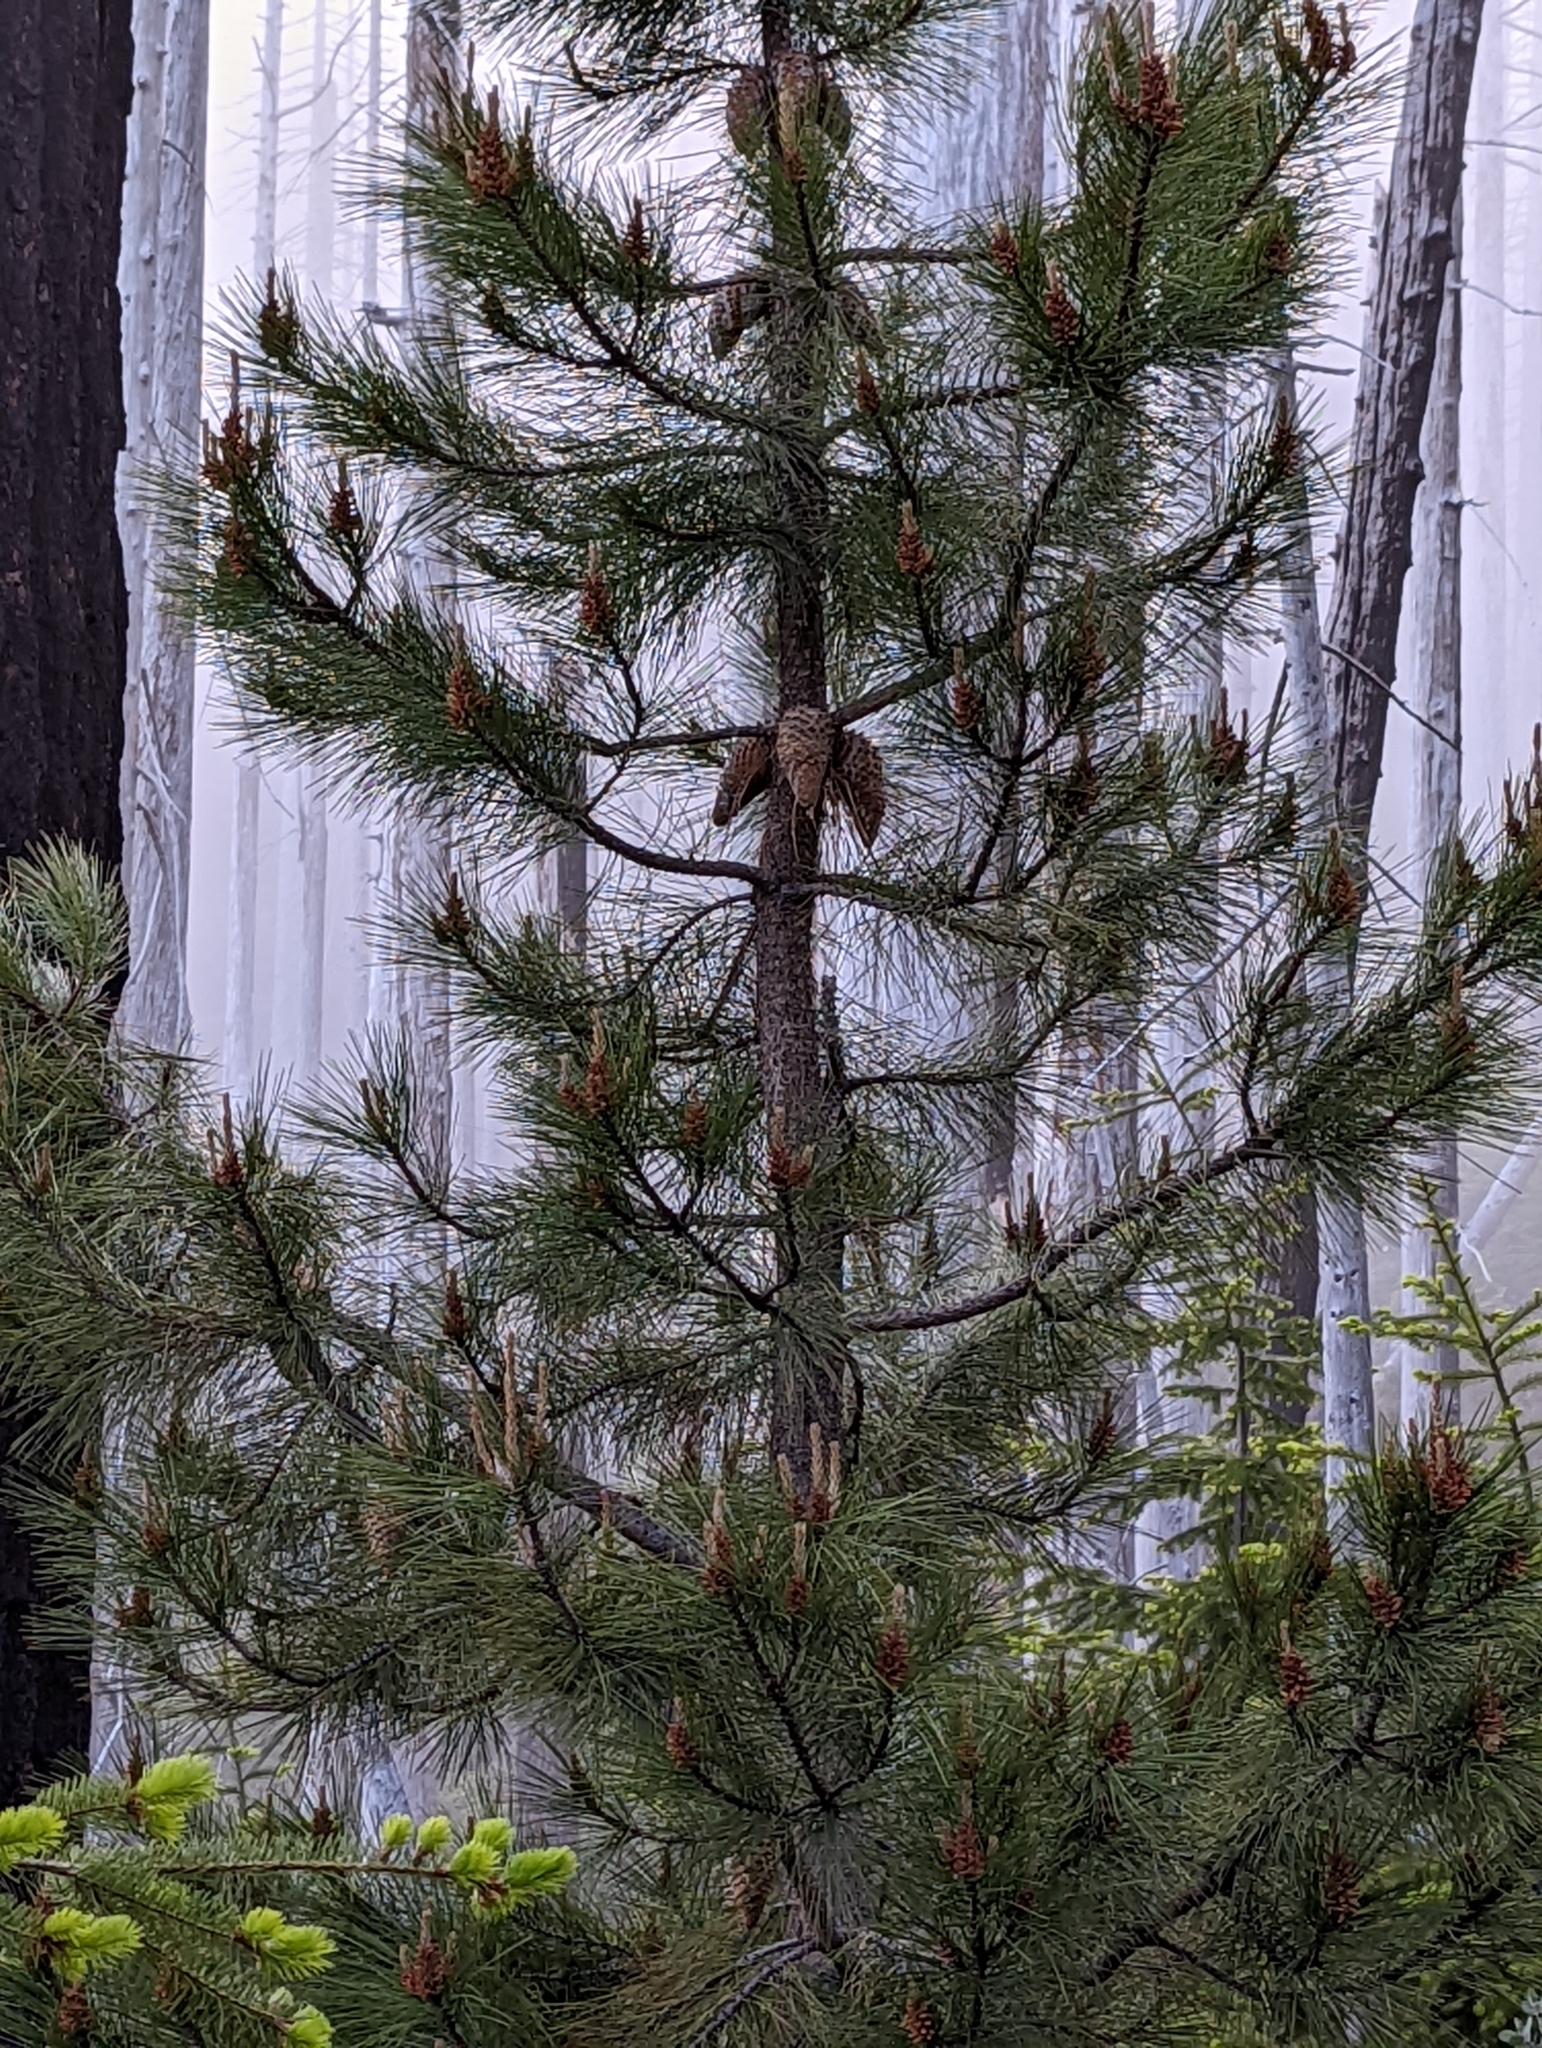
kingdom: Plantae
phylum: Tracheophyta
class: Pinopsida
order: Pinales
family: Pinaceae
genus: Pinus
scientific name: Pinus attenuata
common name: Knobcone pine
